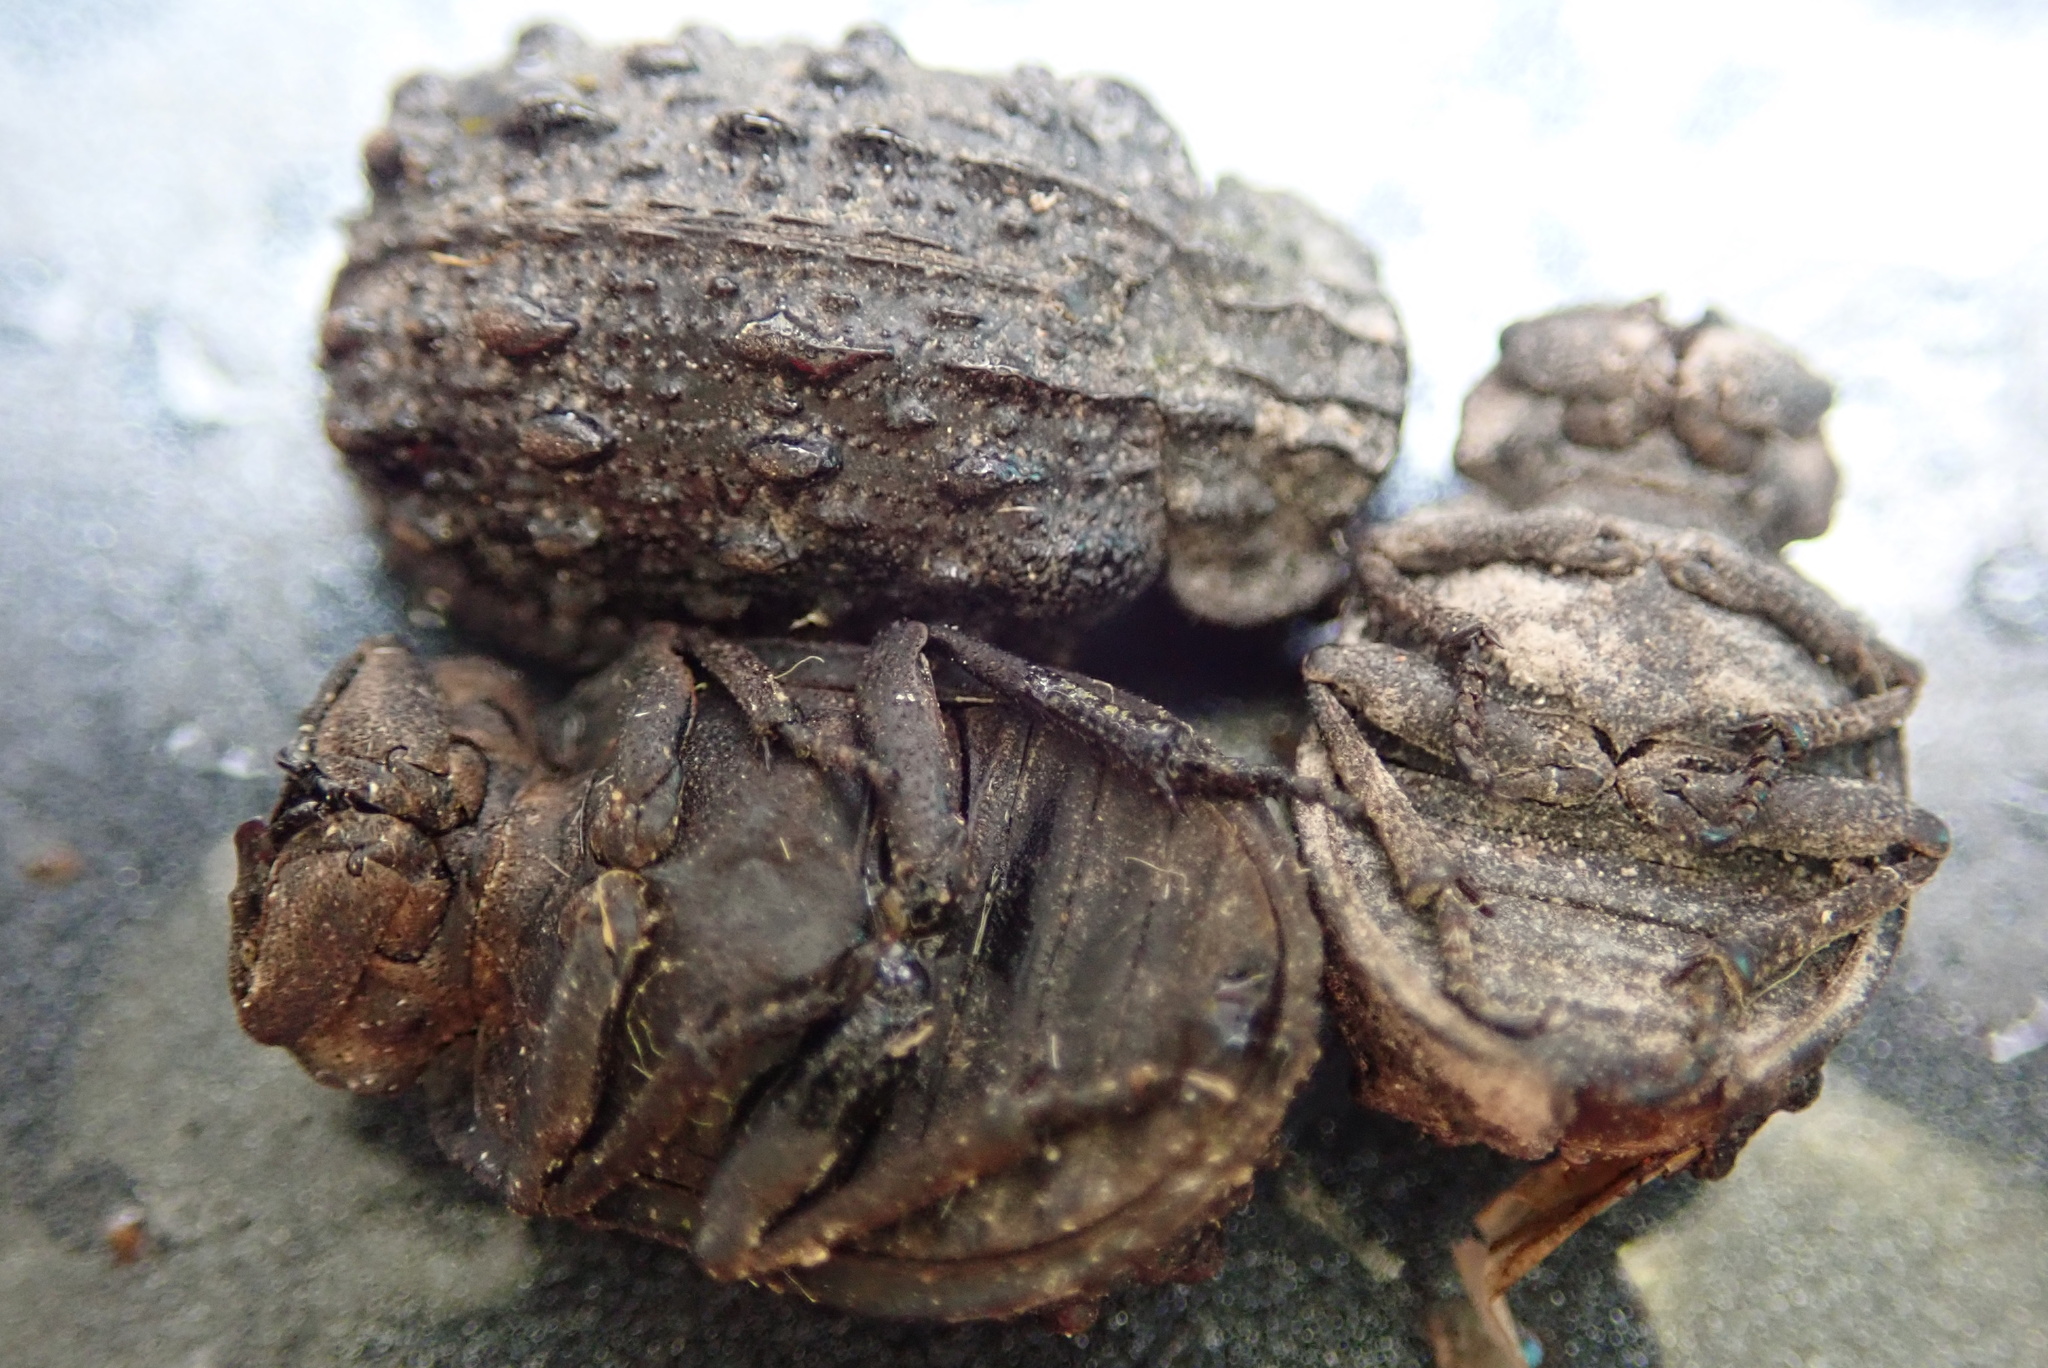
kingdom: Animalia
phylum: Arthropoda
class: Insecta
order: Coleoptera
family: Trogidae
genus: Omorgus
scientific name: Omorgus australasiae
